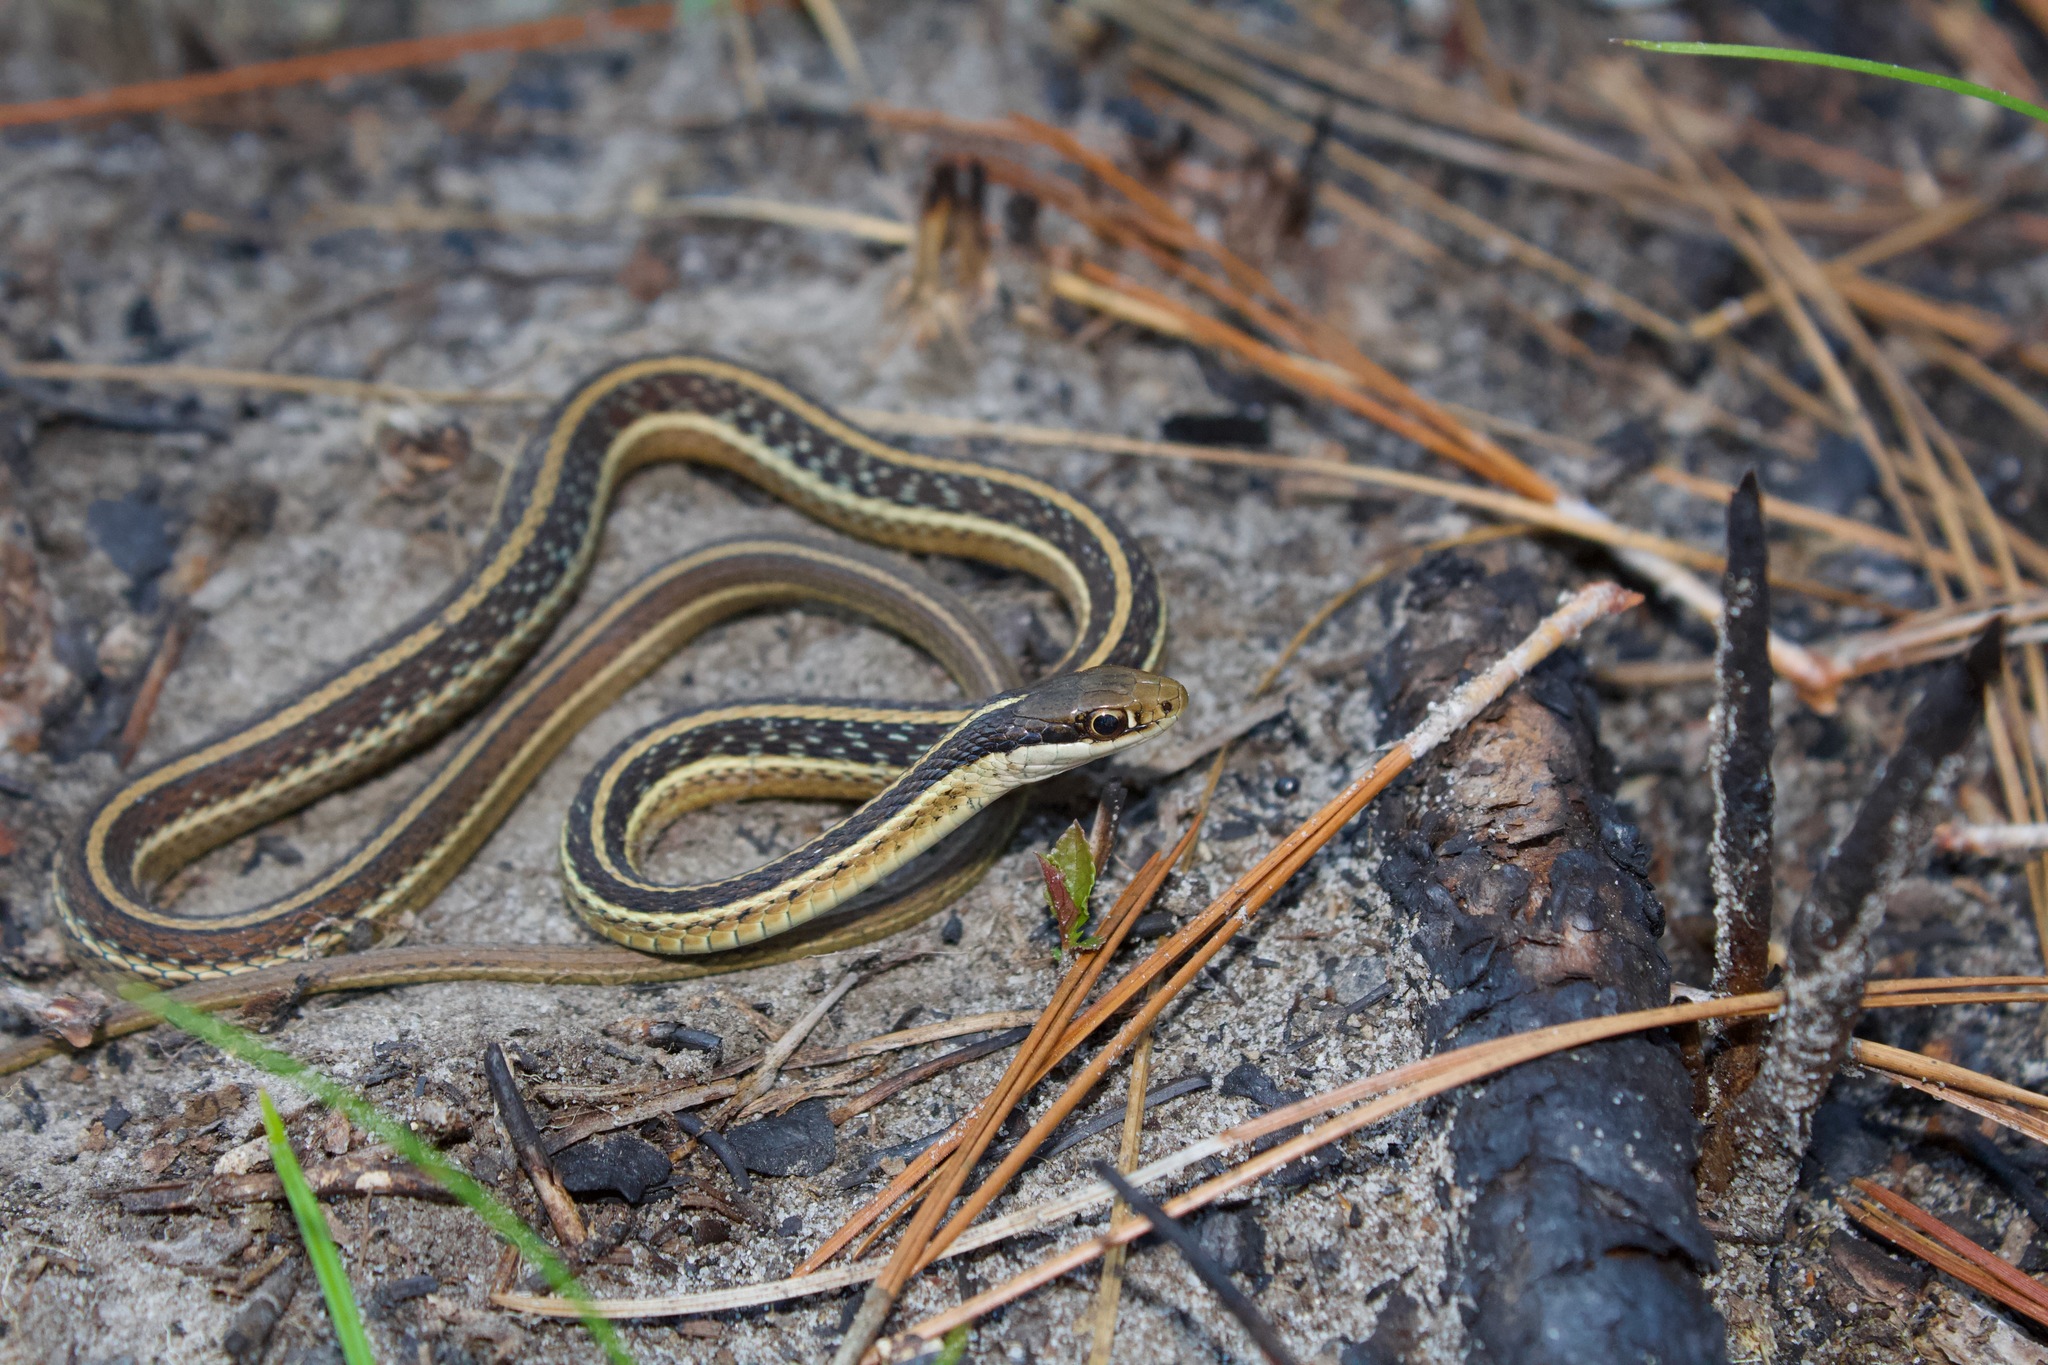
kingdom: Animalia
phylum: Chordata
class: Squamata
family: Colubridae
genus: Thamnophis
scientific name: Thamnophis saurita
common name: Eastern ribbonsnake
